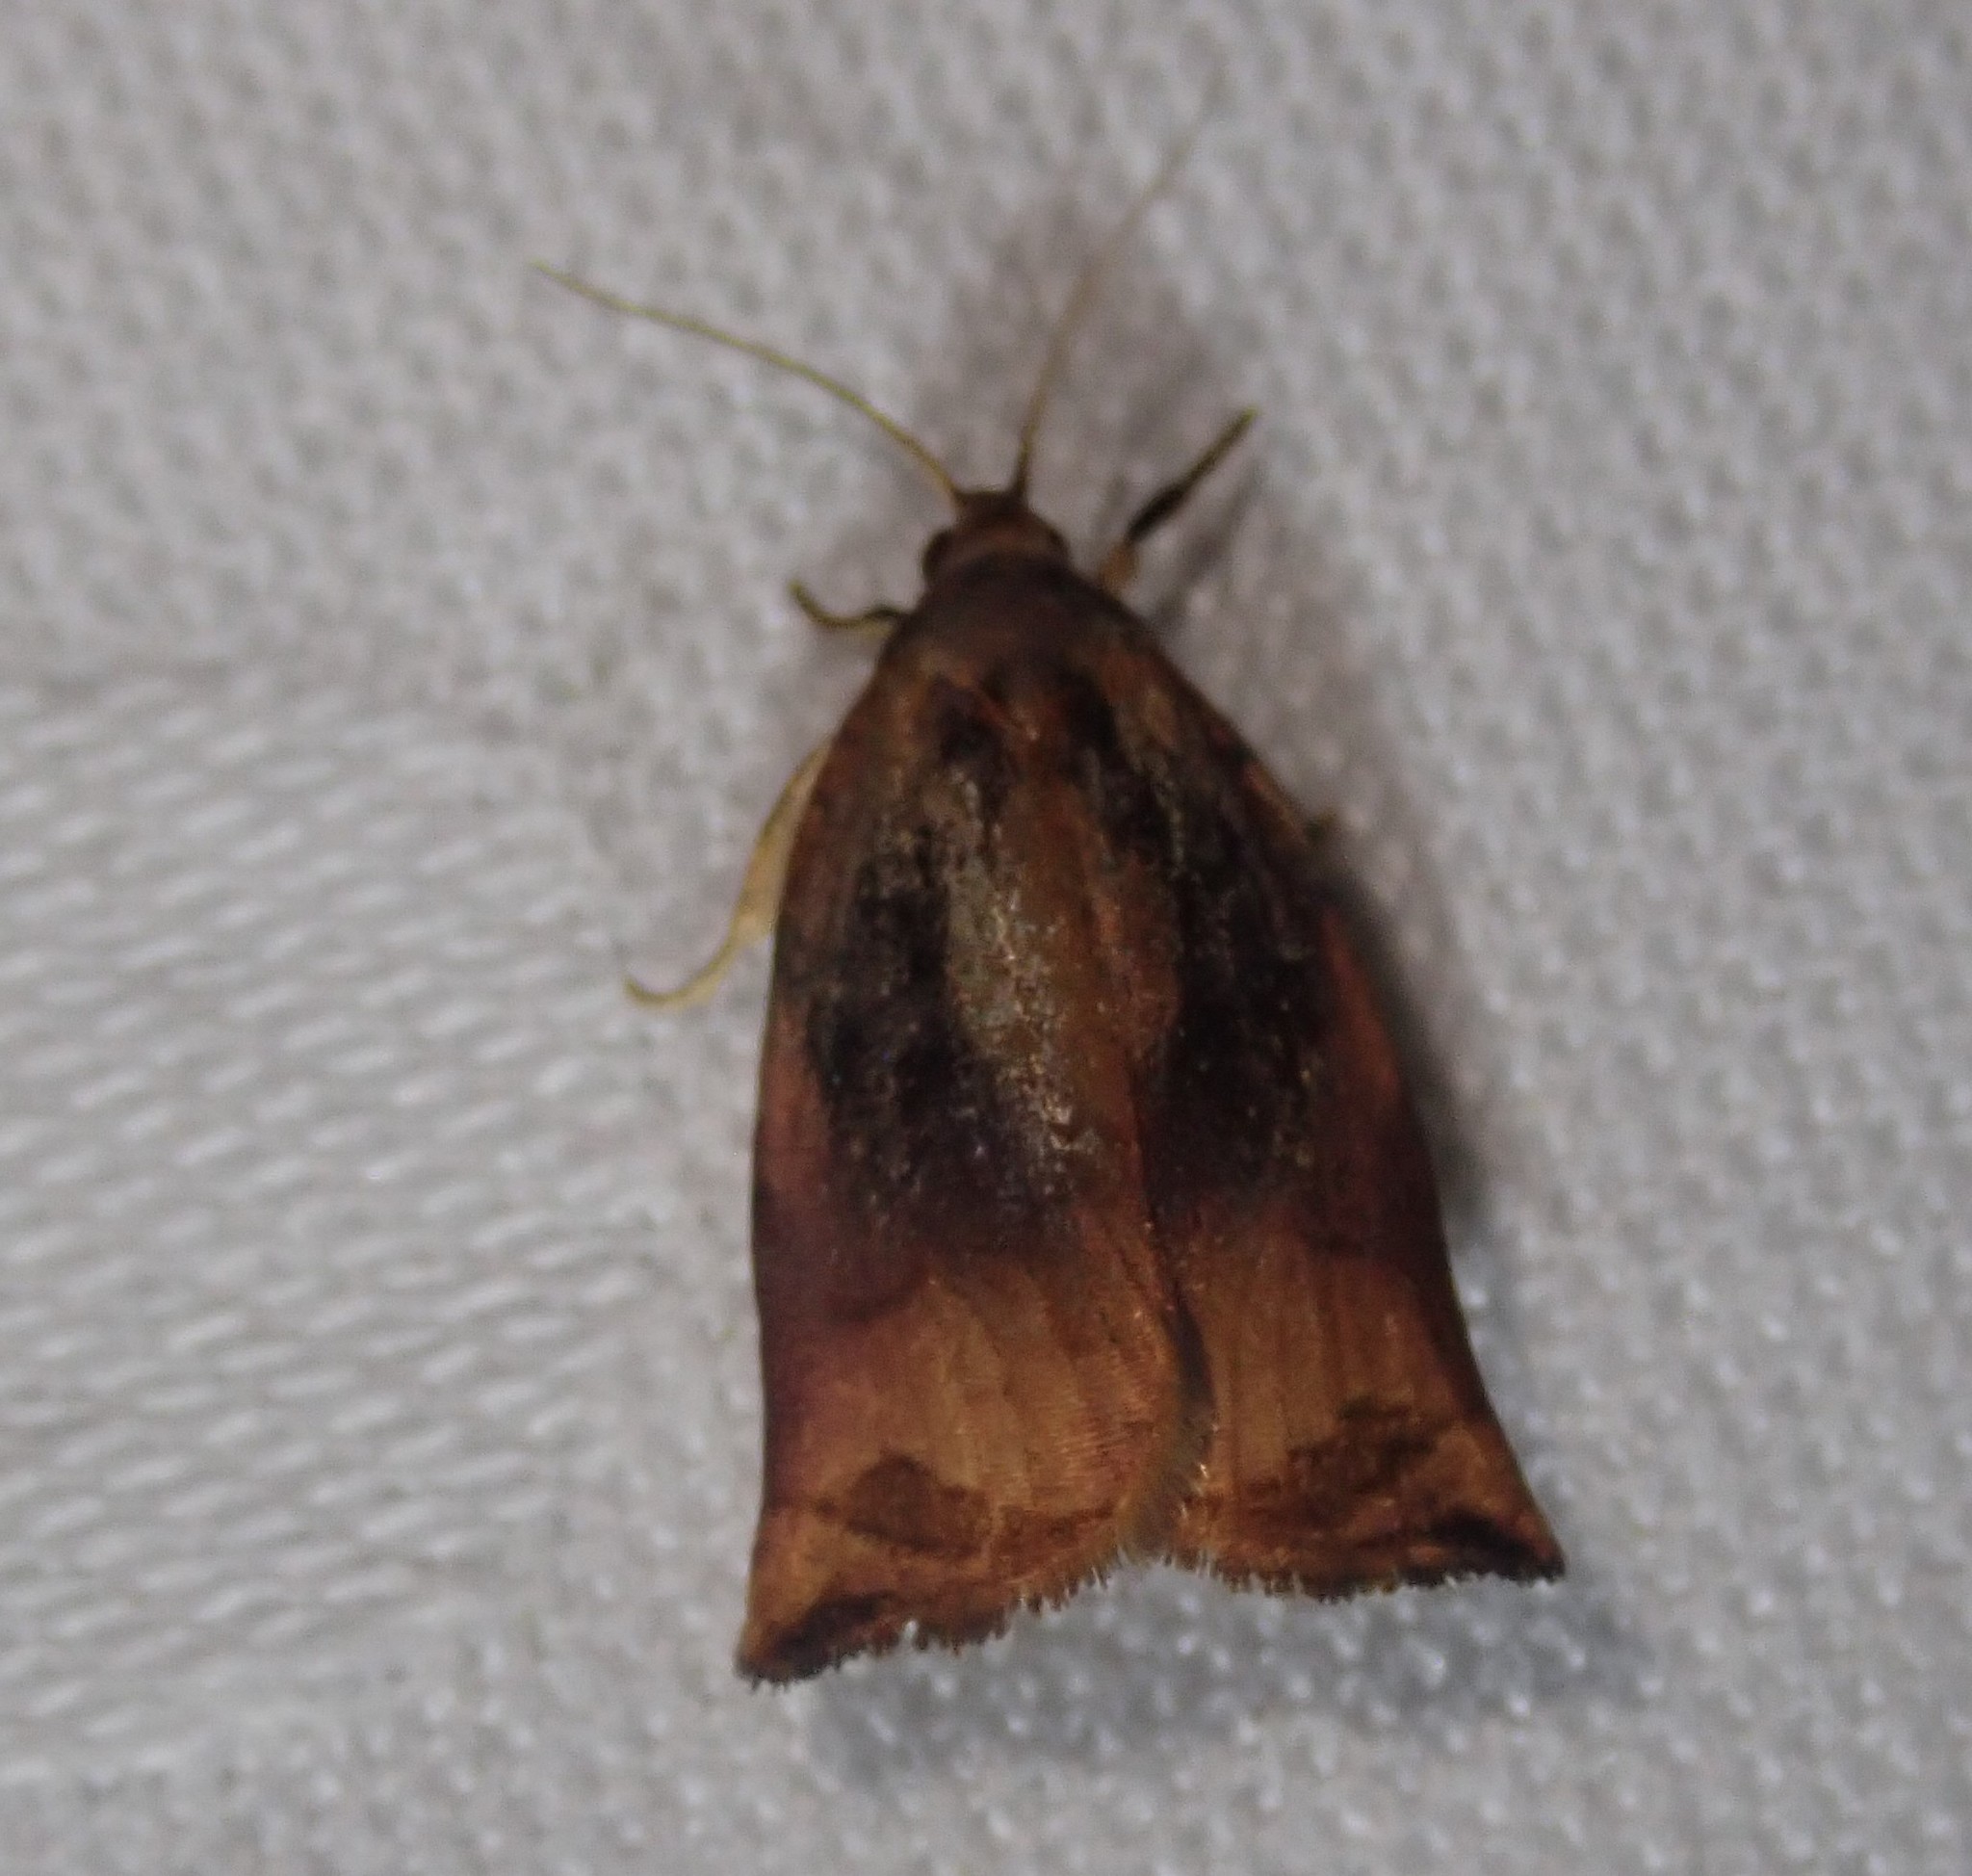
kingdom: Animalia
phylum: Arthropoda
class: Insecta
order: Lepidoptera
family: Tortricidae
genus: Archips
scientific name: Archips podana
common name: Large fruit-tree tortrix
